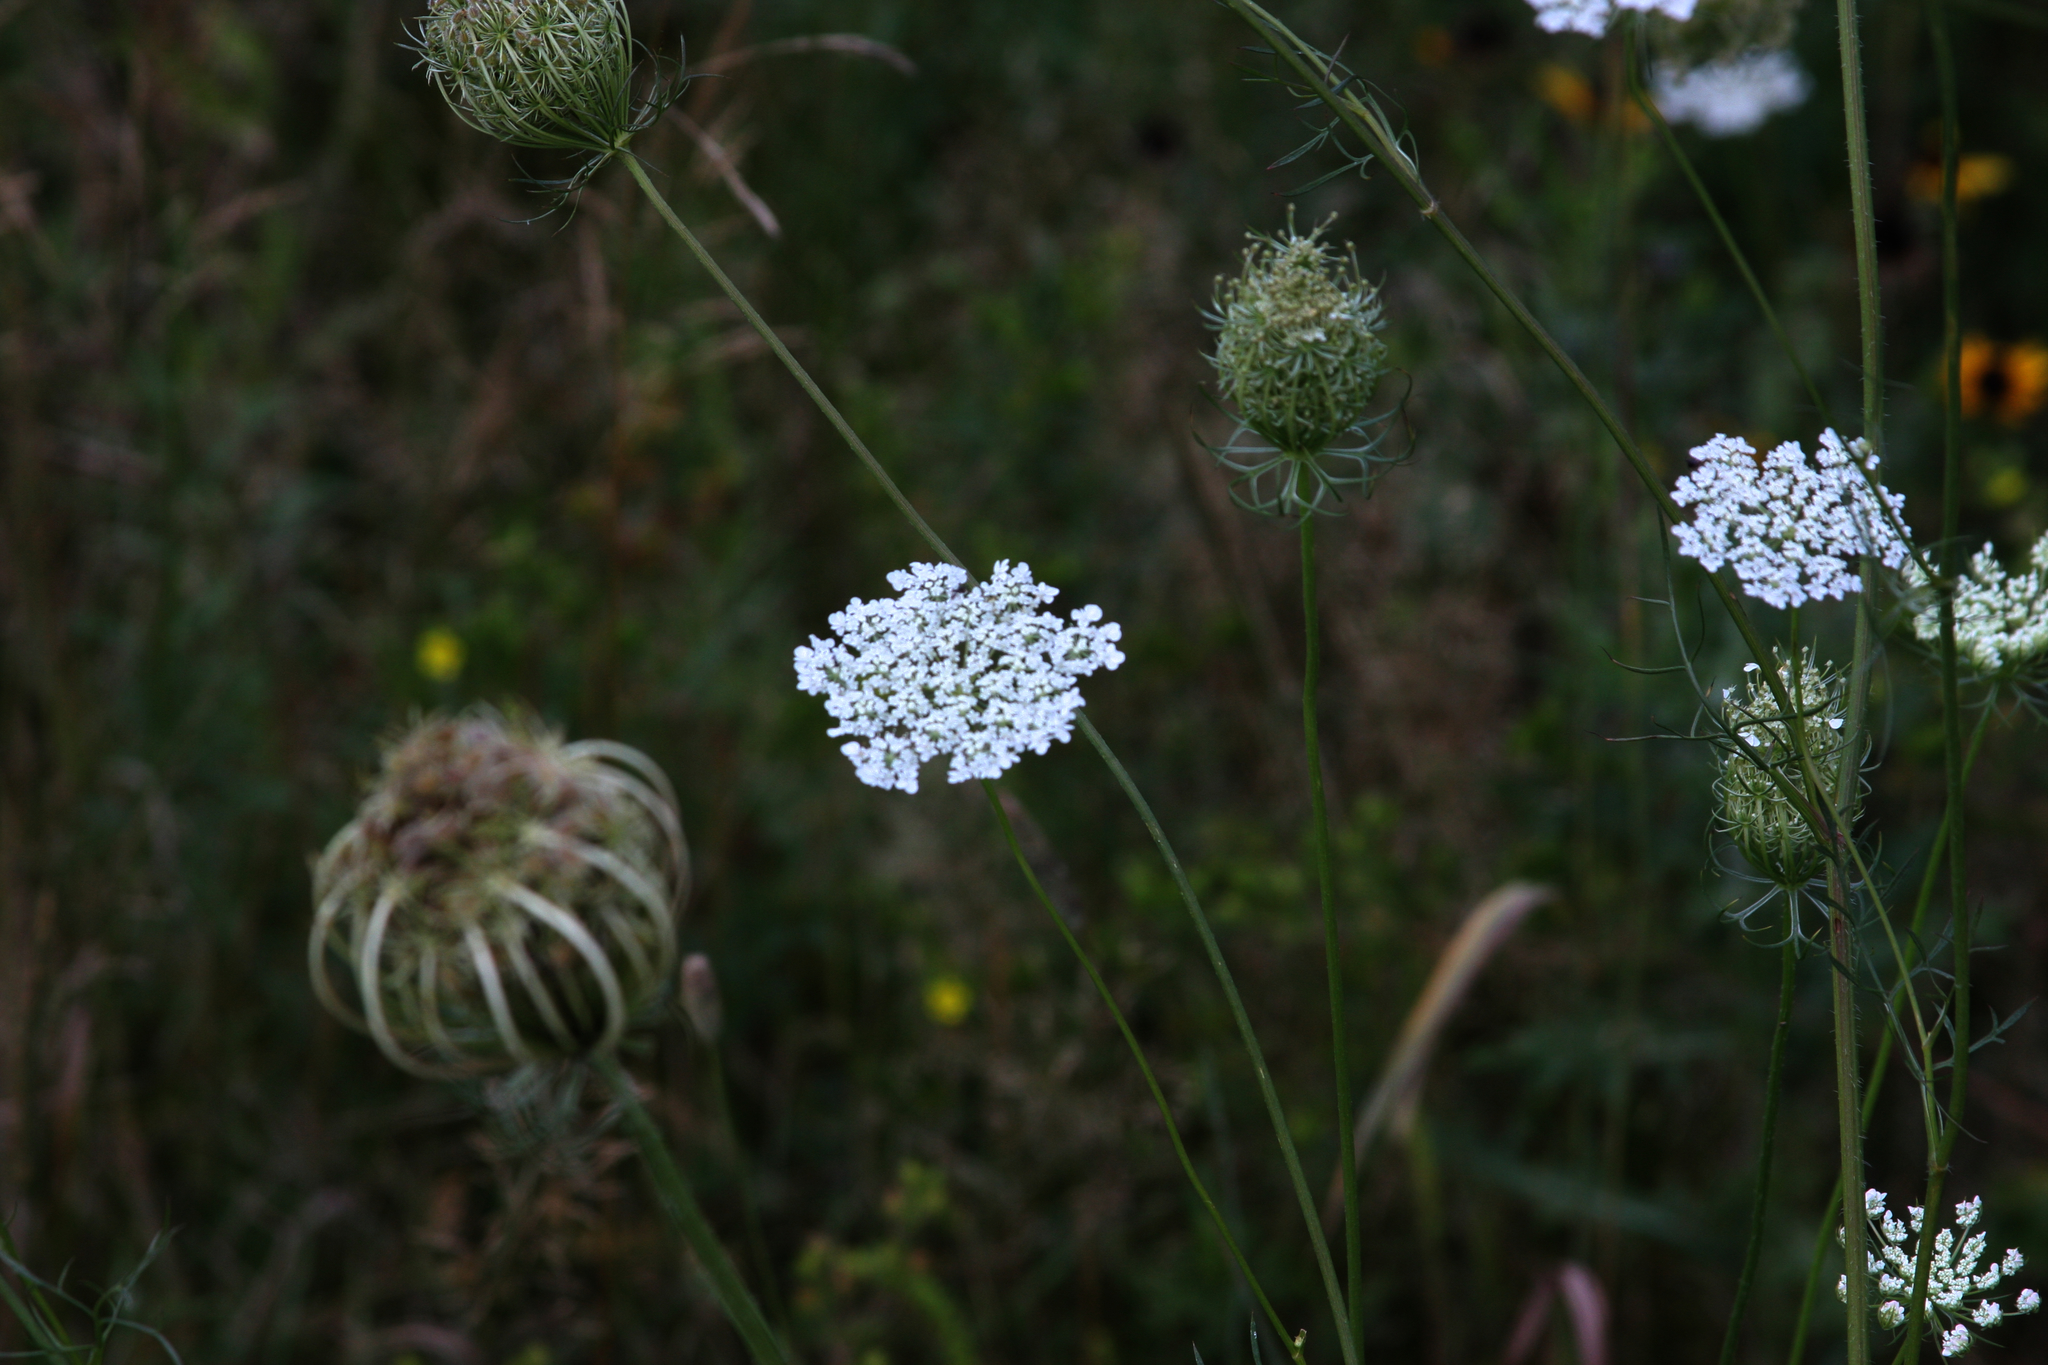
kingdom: Plantae
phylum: Tracheophyta
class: Magnoliopsida
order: Apiales
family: Apiaceae
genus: Daucus
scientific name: Daucus carota
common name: Wild carrot
